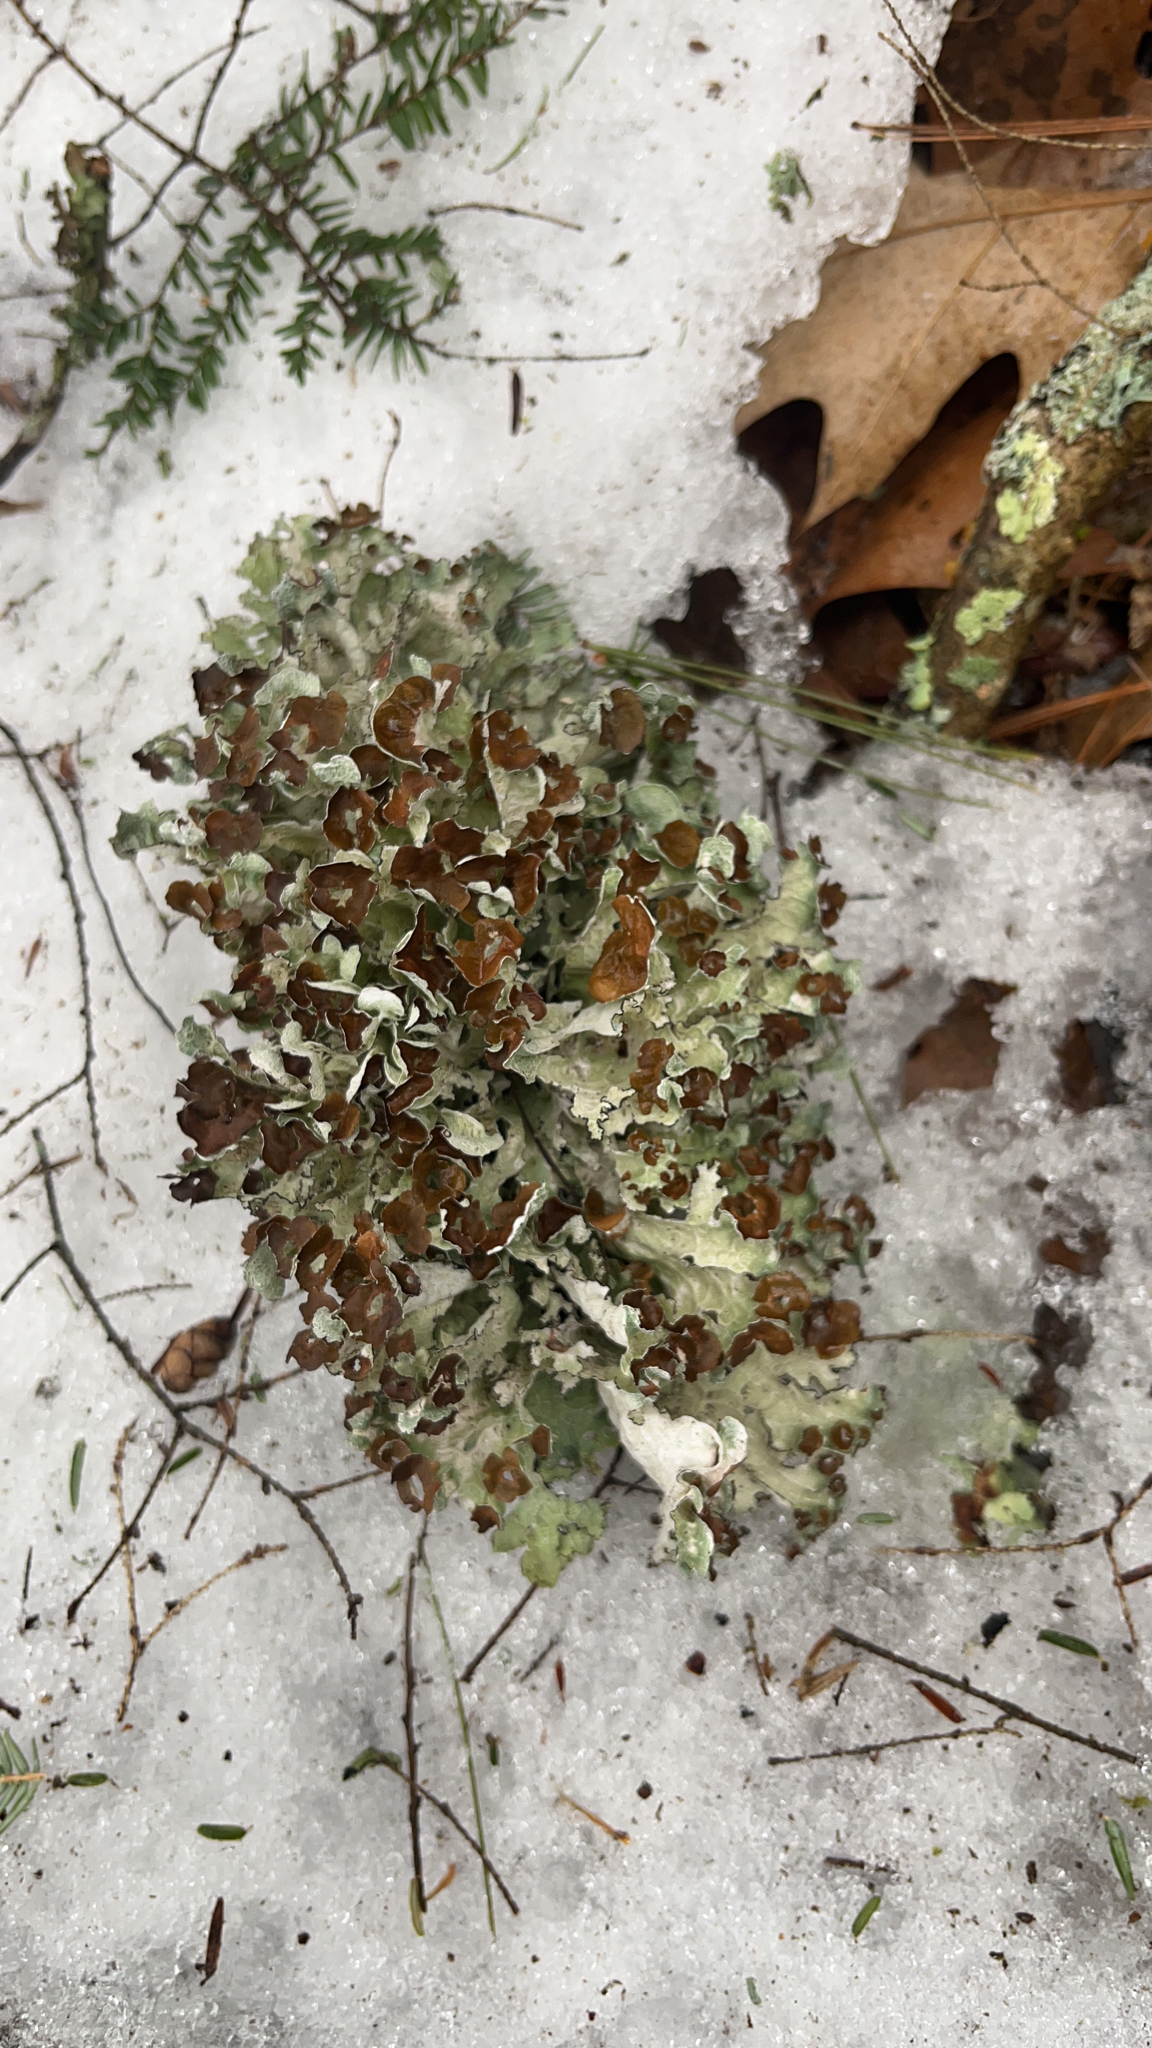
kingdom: Fungi
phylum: Ascomycota
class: Lecanoromycetes
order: Lecanorales
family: Parmeliaceae
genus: Platismatia
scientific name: Platismatia tuckermanii
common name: Crumpled rag lichen
